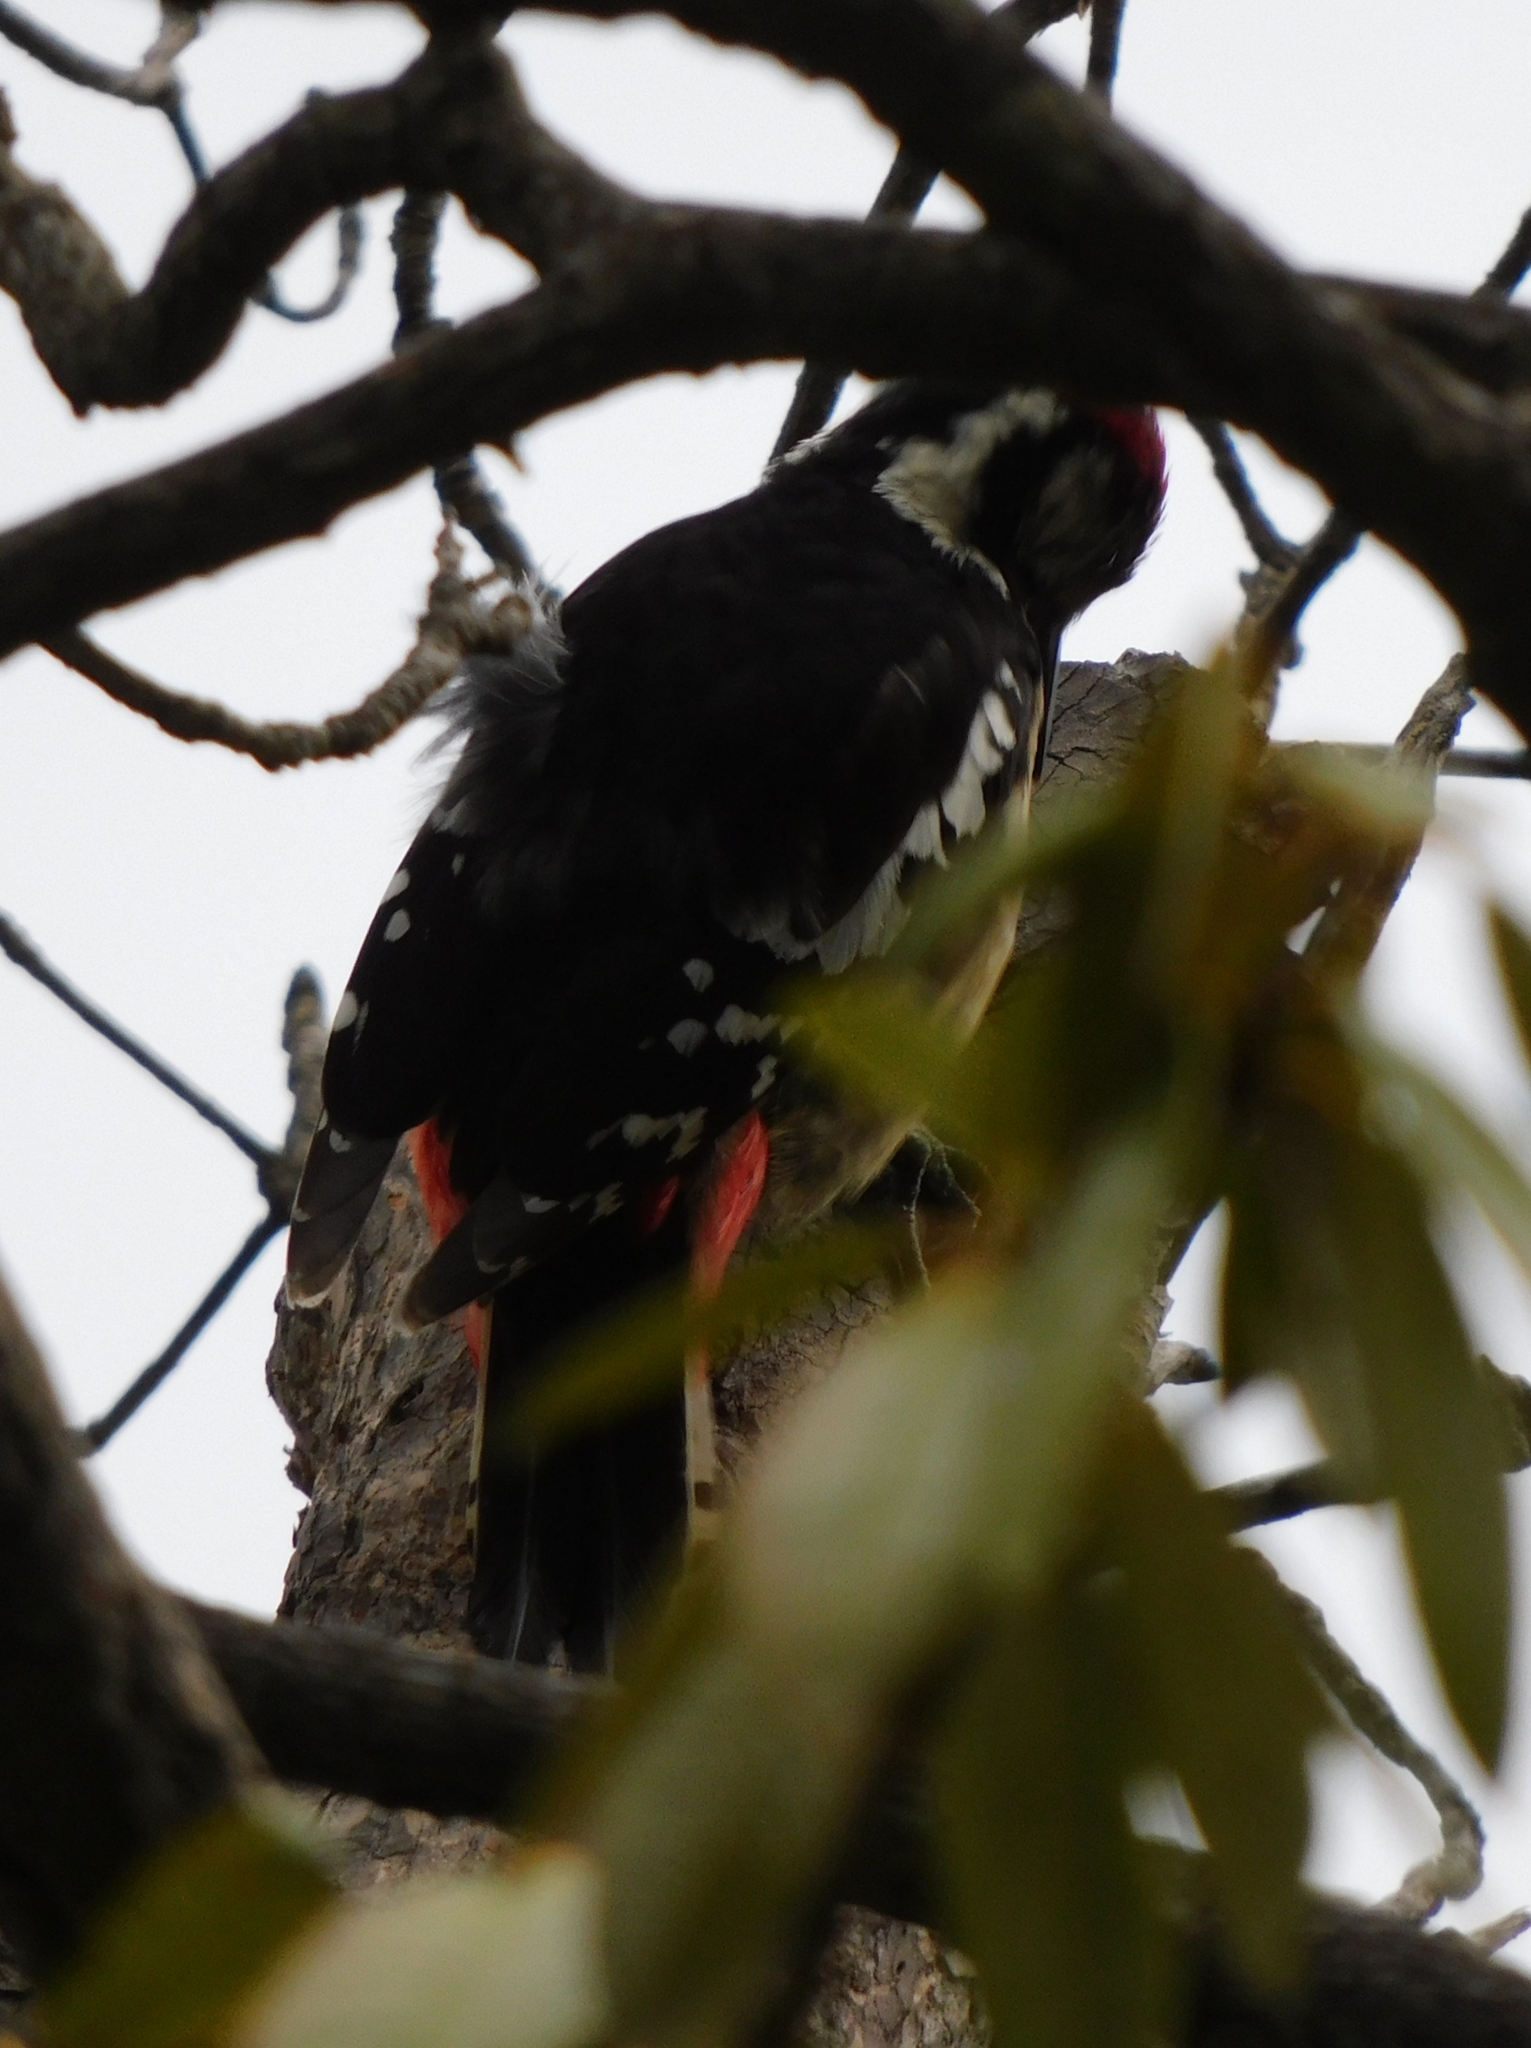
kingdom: Animalia
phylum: Chordata
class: Aves
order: Piciformes
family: Picidae
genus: Dendrocopos
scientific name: Dendrocopos himalayensis
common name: Himalayan woodpecker
